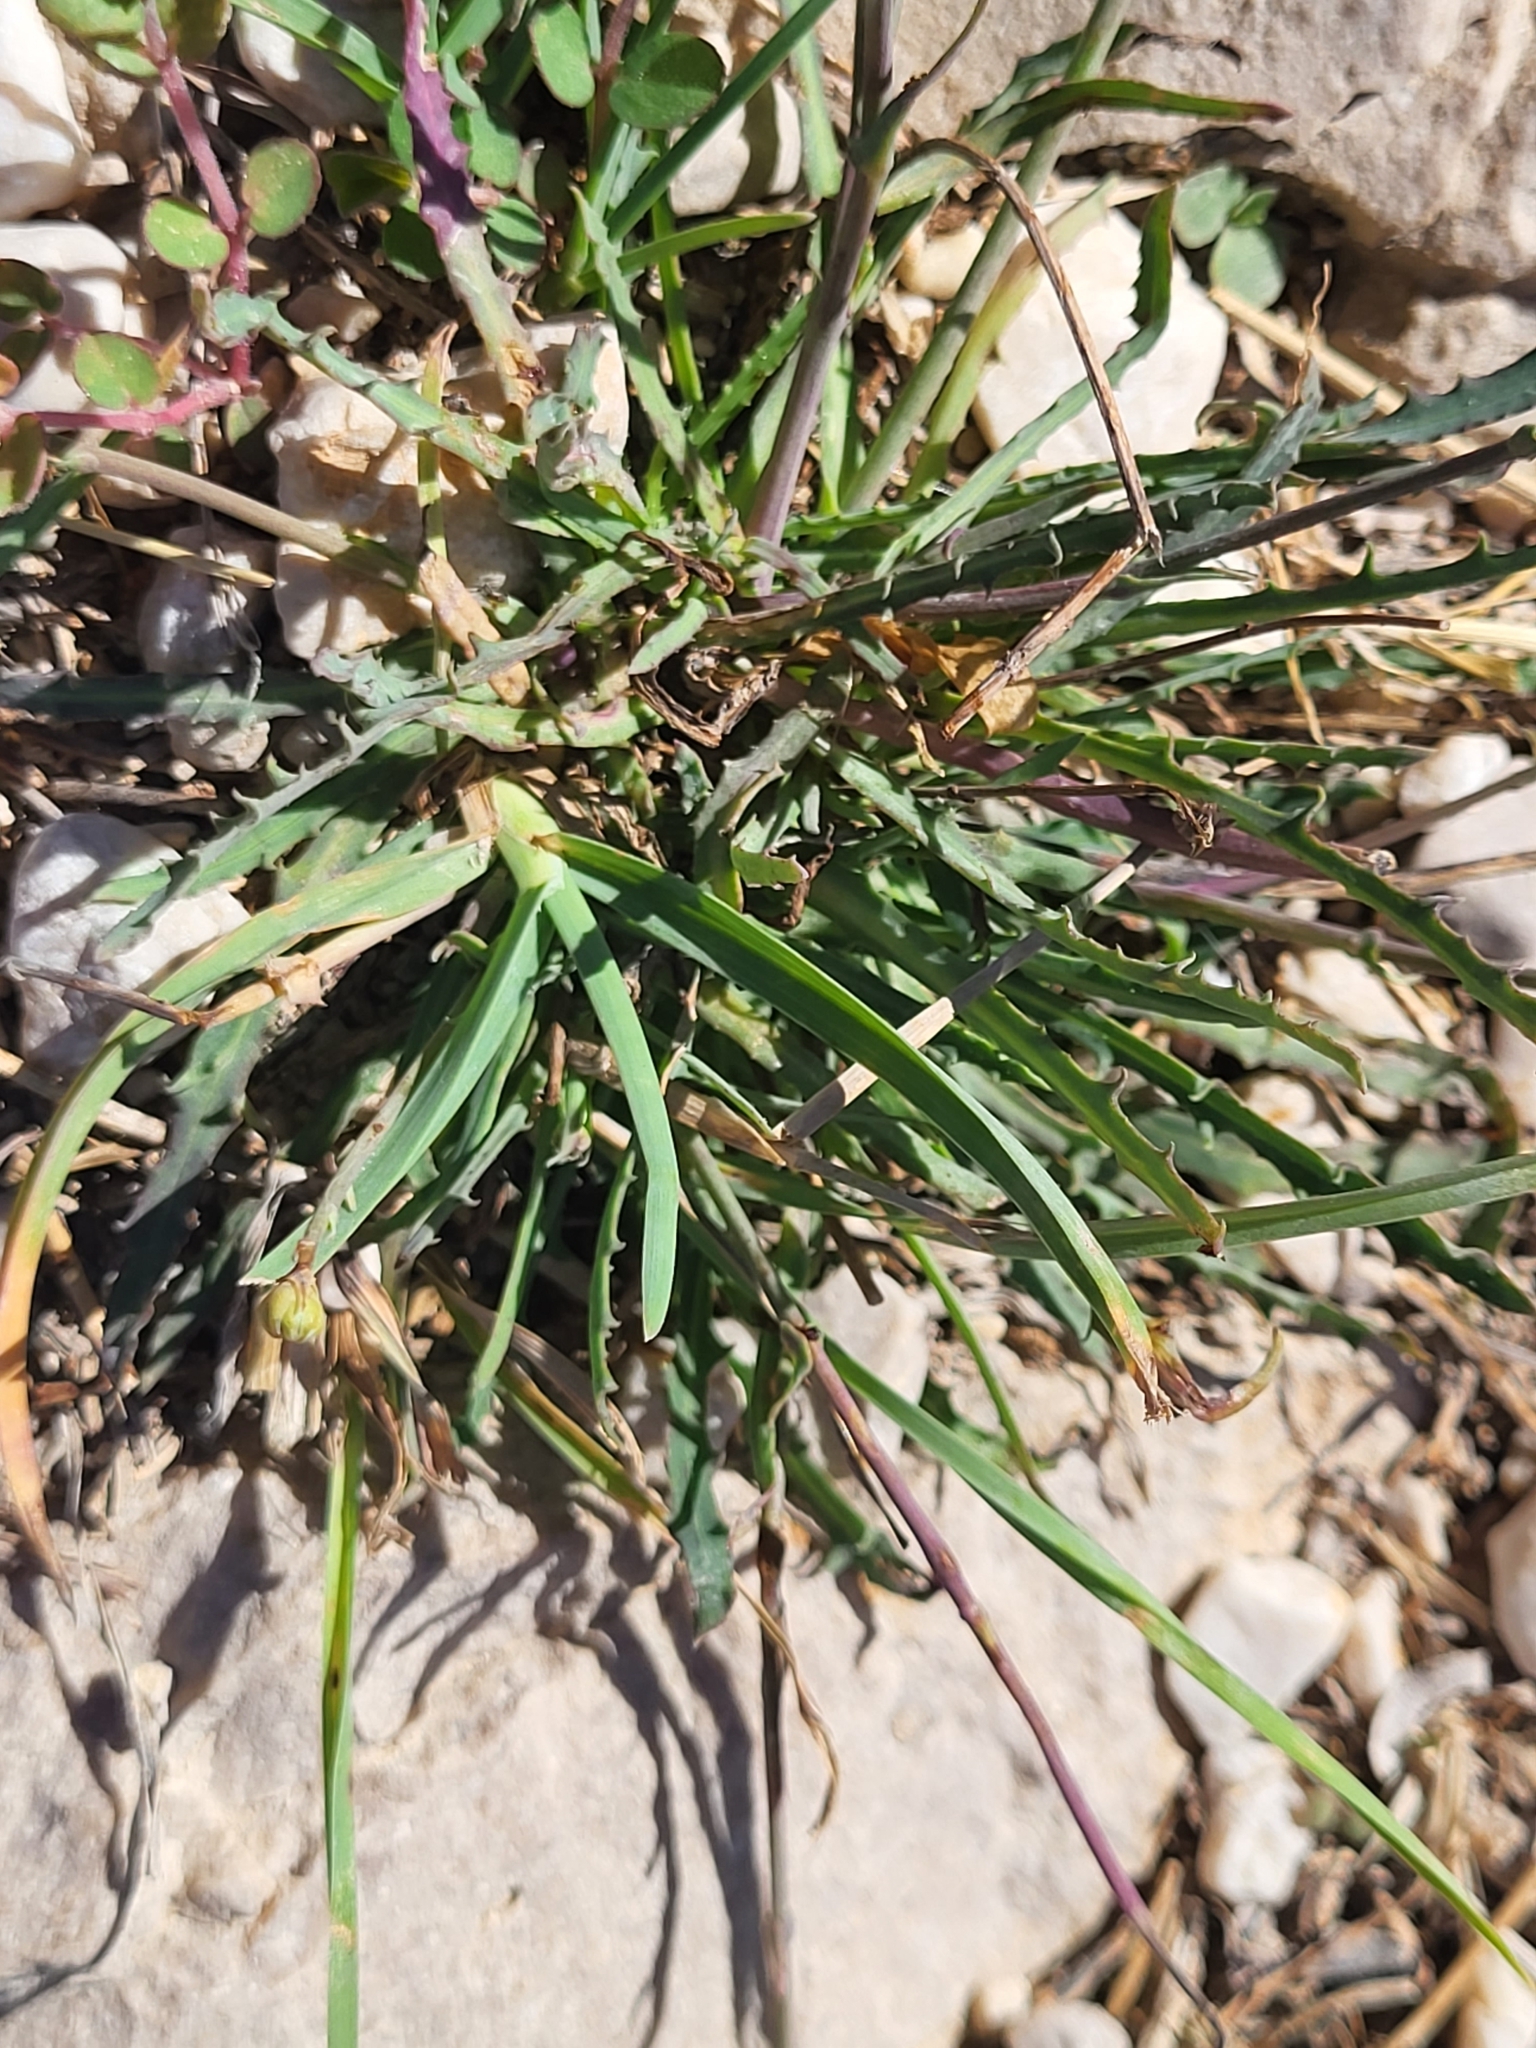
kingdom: Plantae
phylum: Tracheophyta
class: Magnoliopsida
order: Asterales
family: Asteraceae
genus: Reichardia
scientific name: Reichardia picroides
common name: Common brighteyes
